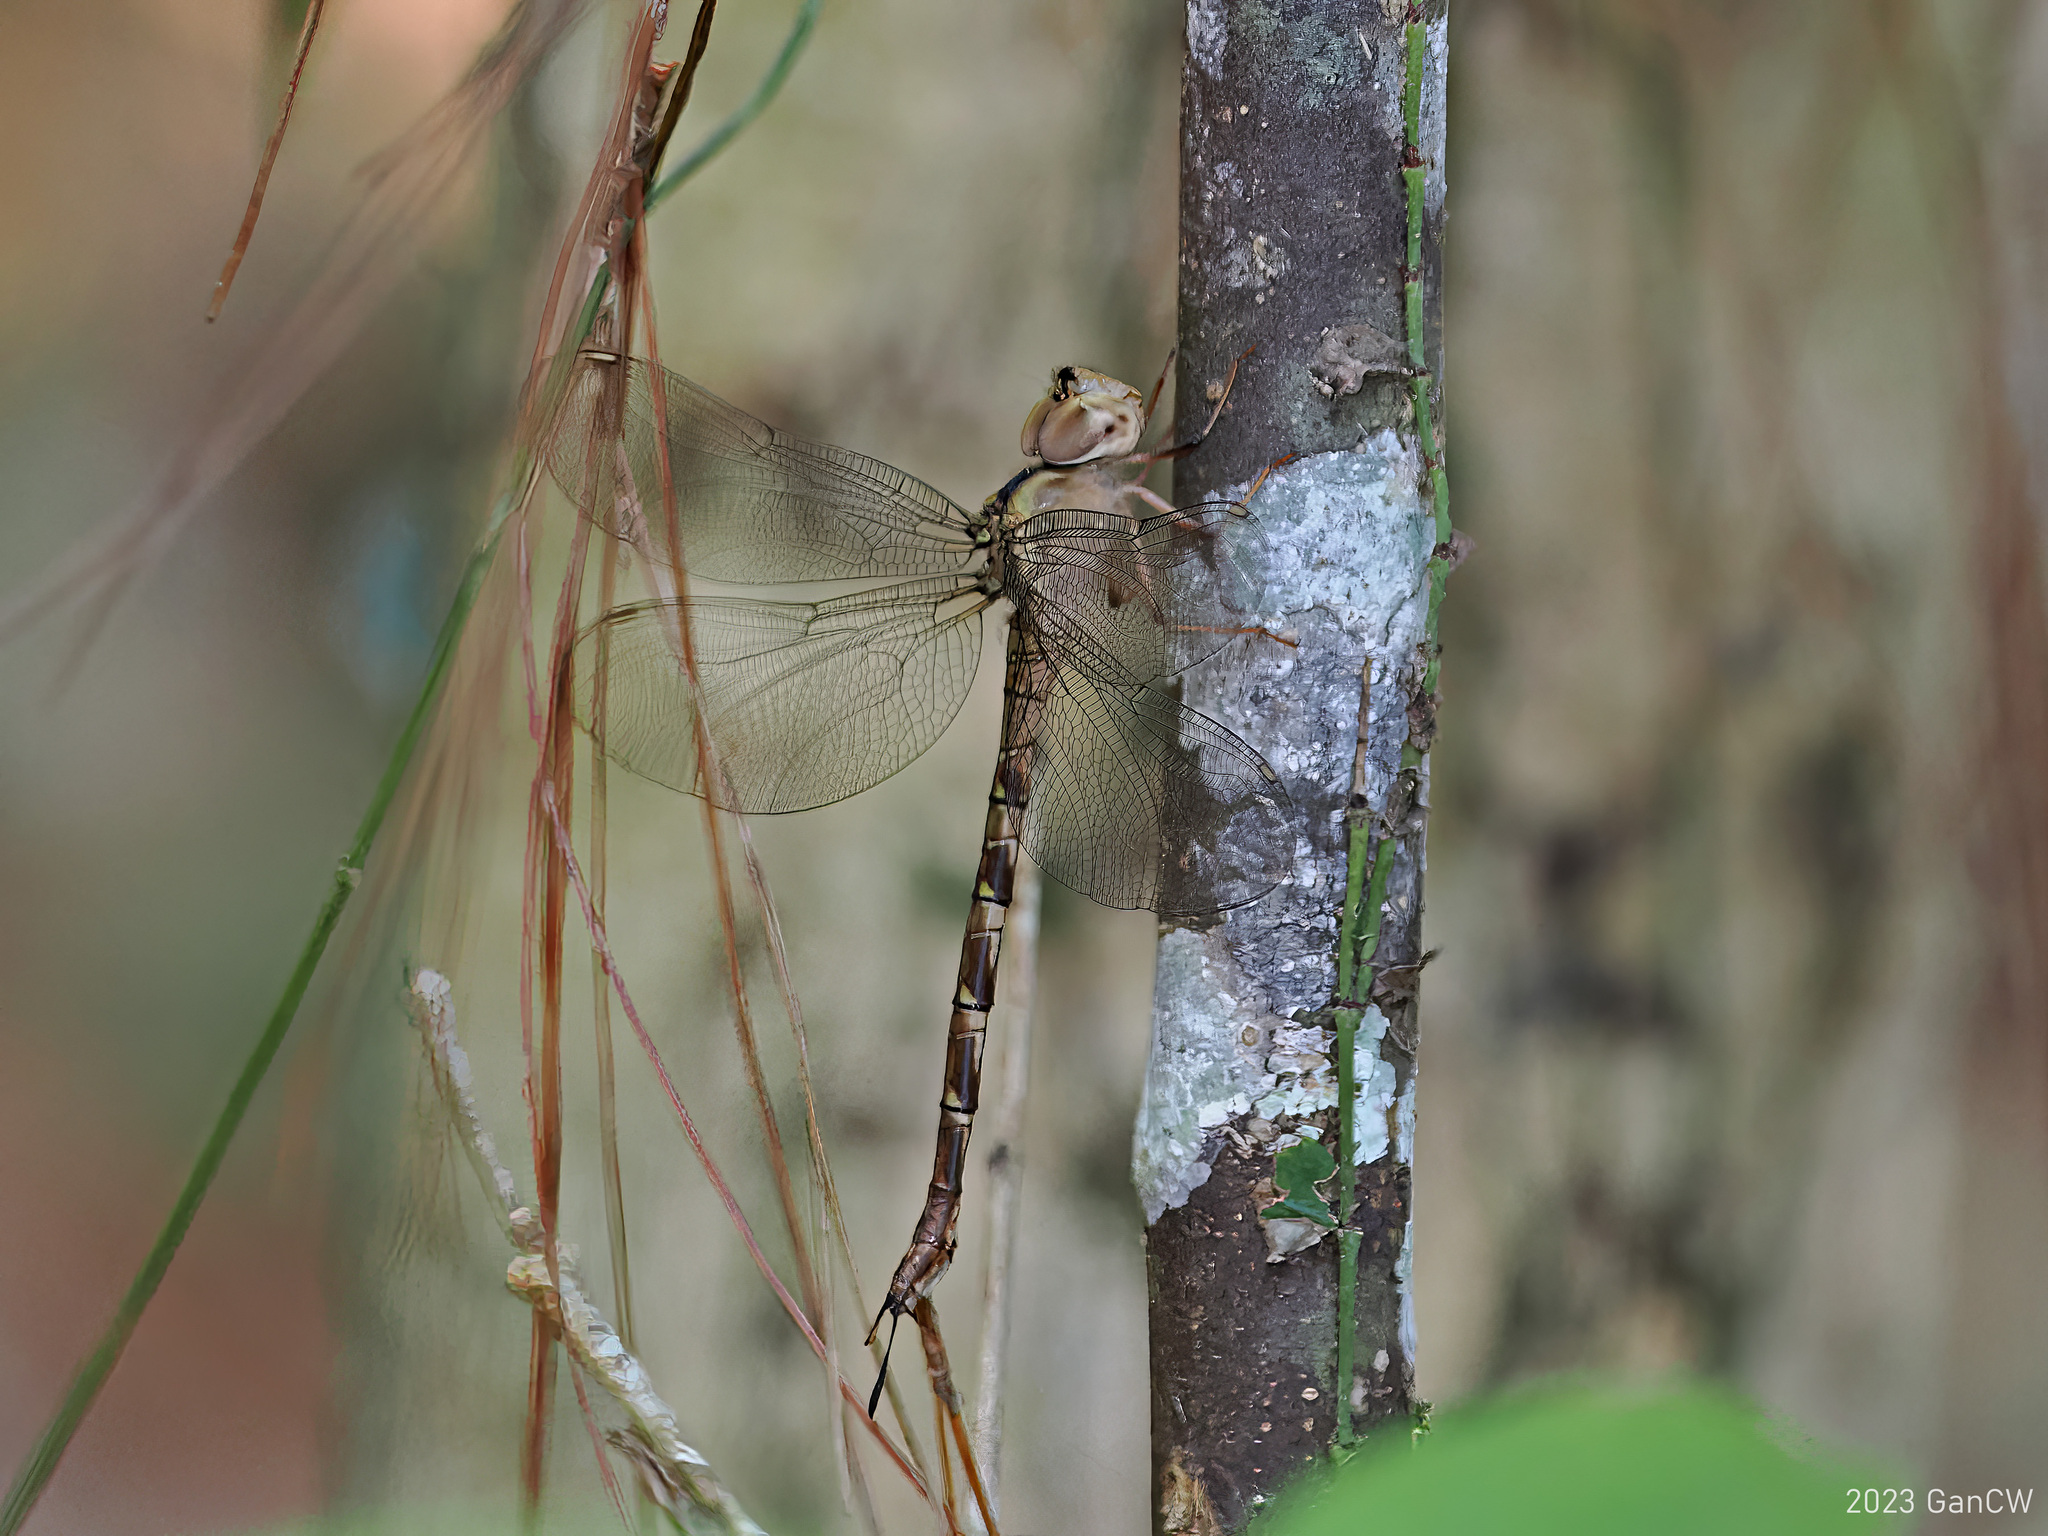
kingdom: Animalia
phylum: Arthropoda
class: Insecta
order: Odonata
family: Aeshnidae
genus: Gynacantha
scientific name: Gynacantha subinterrupta
